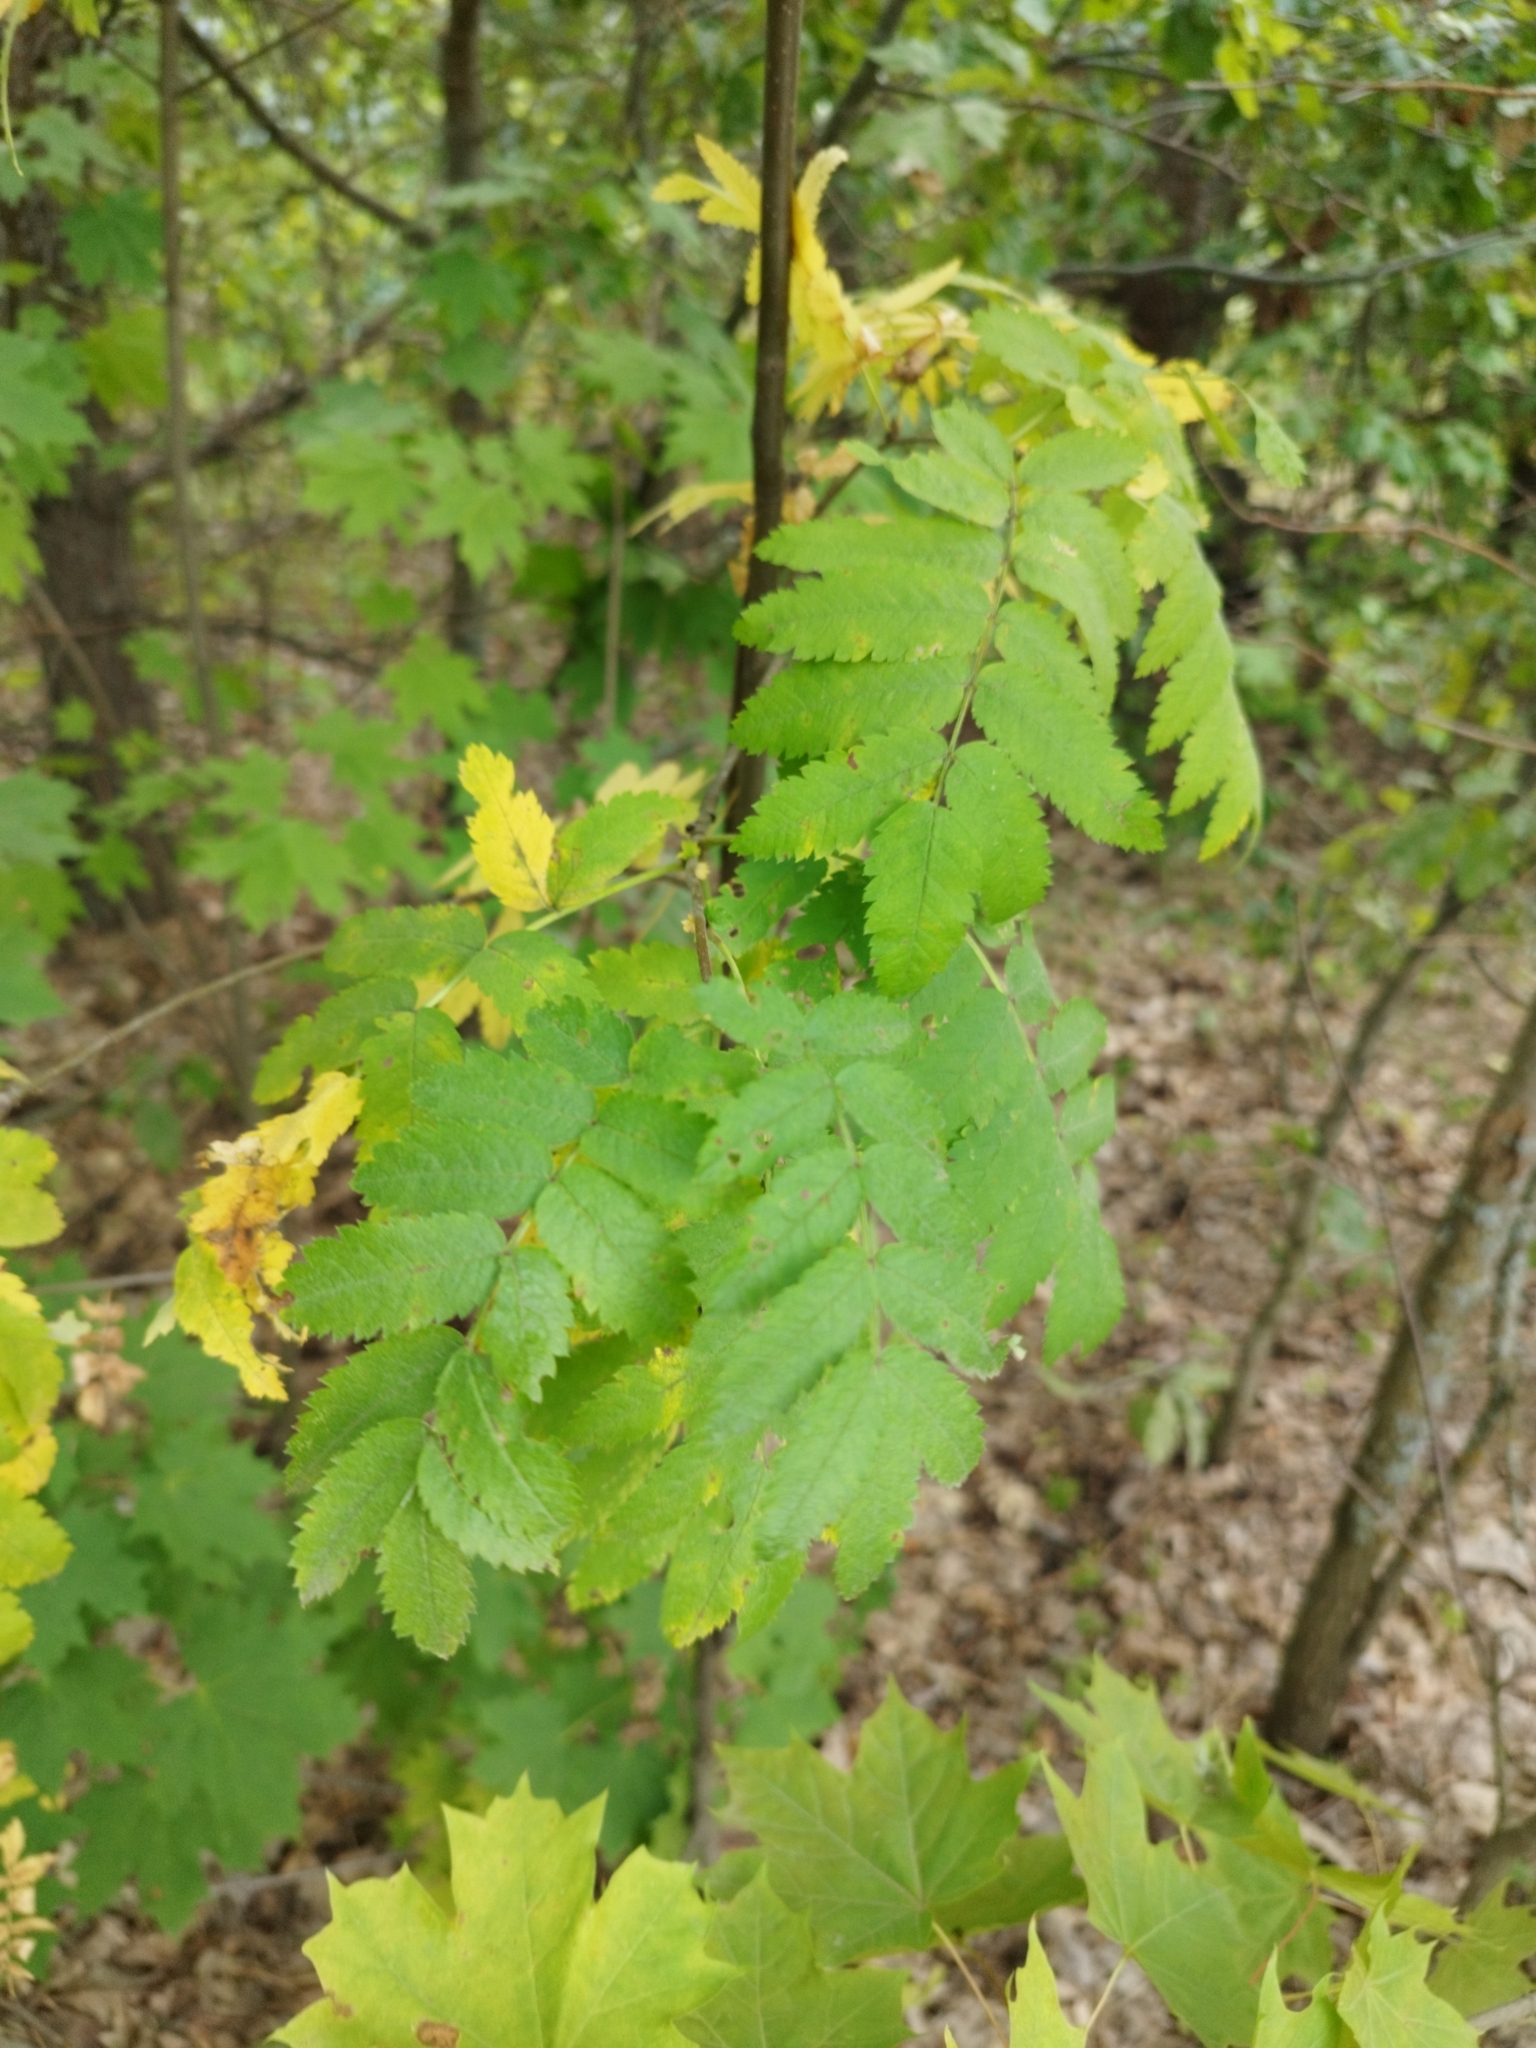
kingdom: Plantae
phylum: Tracheophyta
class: Magnoliopsida
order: Rosales
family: Rosaceae
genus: Sorbus
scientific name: Sorbus aucuparia
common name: Rowan
